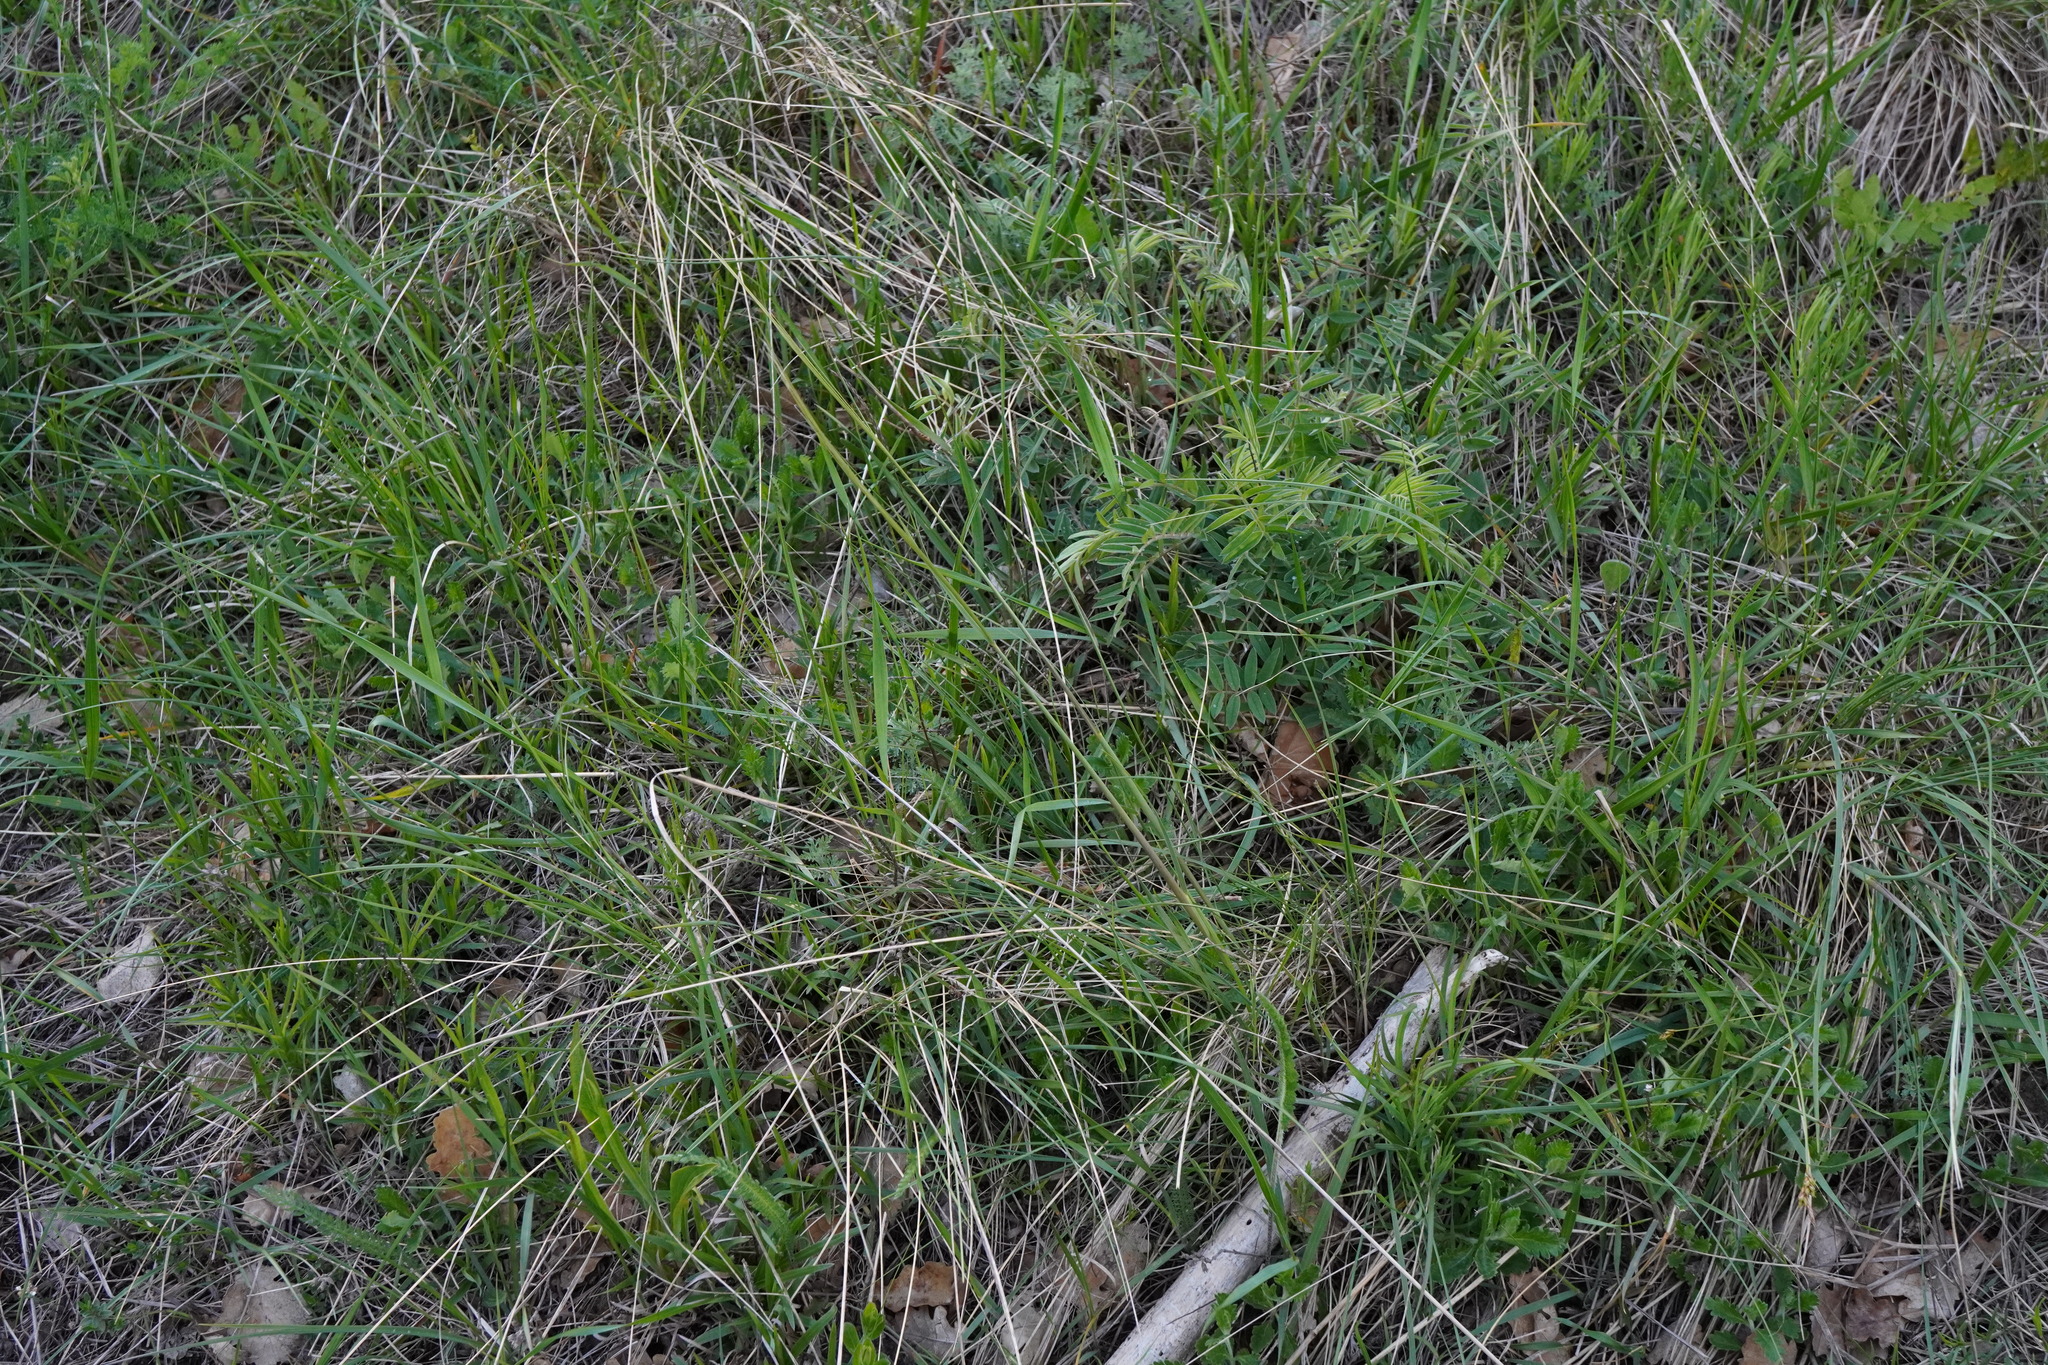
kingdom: Plantae
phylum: Tracheophyta
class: Liliopsida
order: Poales
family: Poaceae
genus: Stipa
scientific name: Stipa pulcherrima
